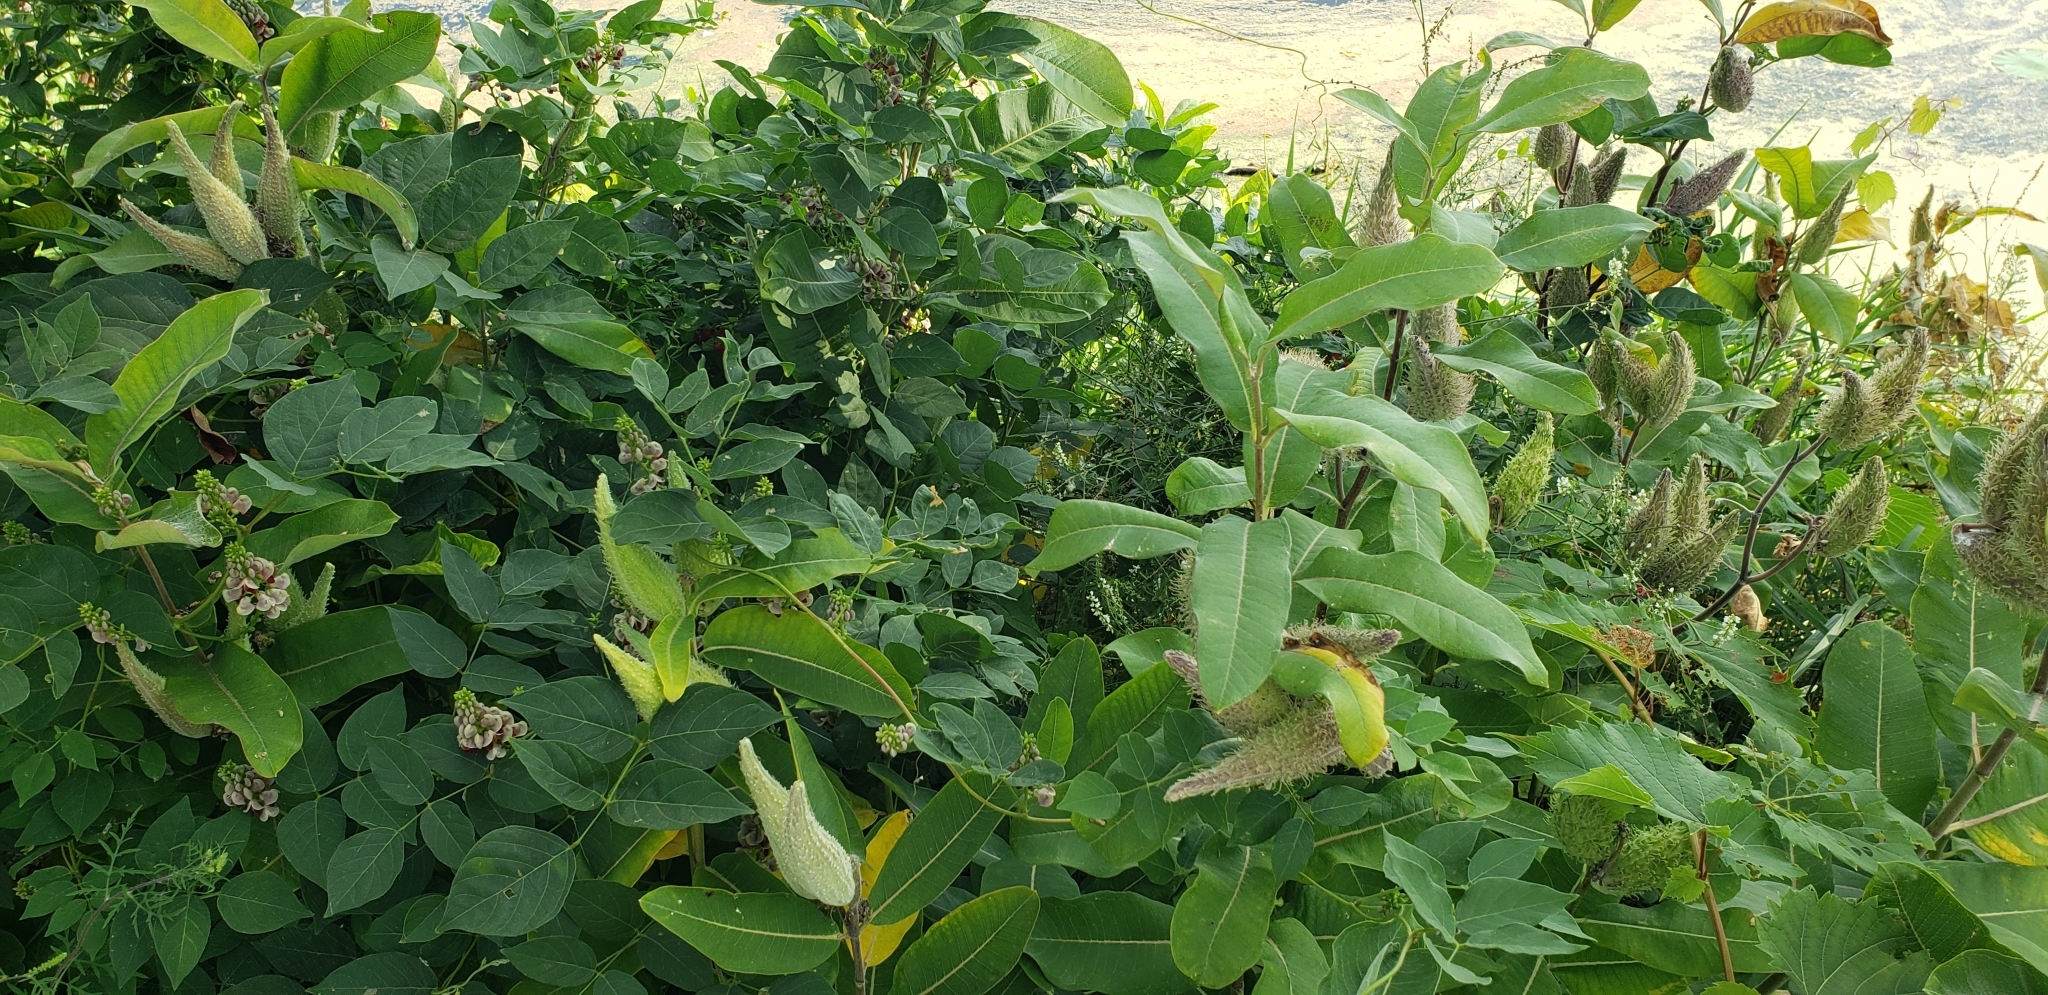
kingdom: Plantae
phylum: Tracheophyta
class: Magnoliopsida
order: Gentianales
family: Apocynaceae
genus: Asclepias
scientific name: Asclepias syriaca
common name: Common milkweed
